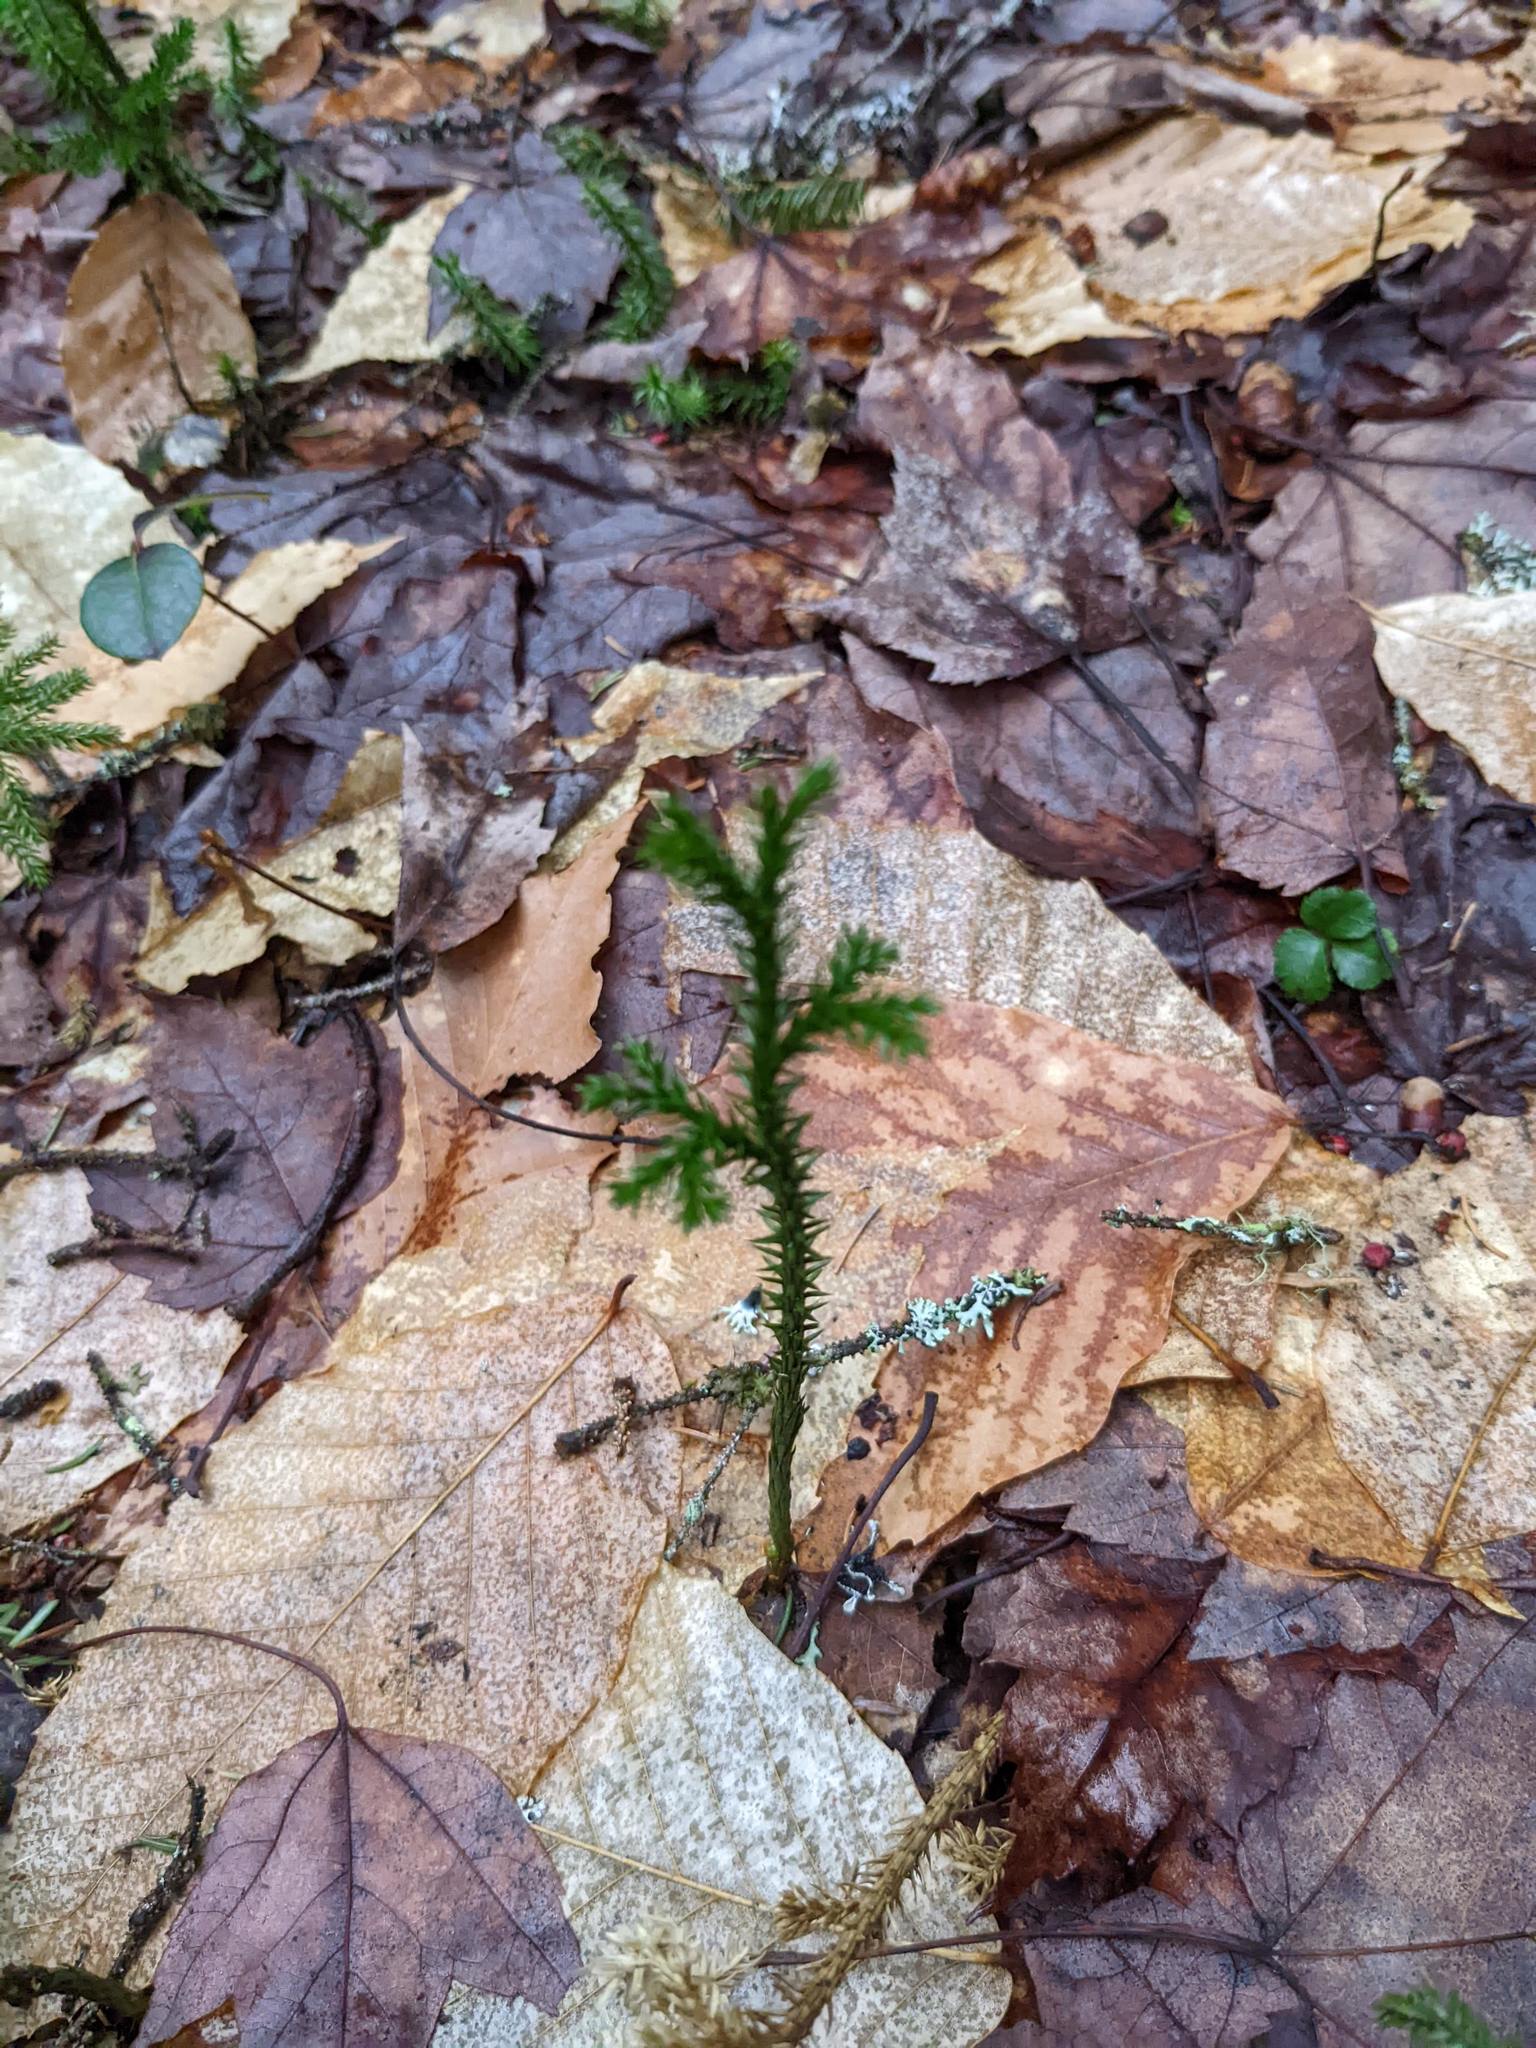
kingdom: Plantae
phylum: Tracheophyta
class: Magnoliopsida
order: Fagales
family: Fagaceae
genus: Fagus
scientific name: Fagus grandifolia
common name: American beech
